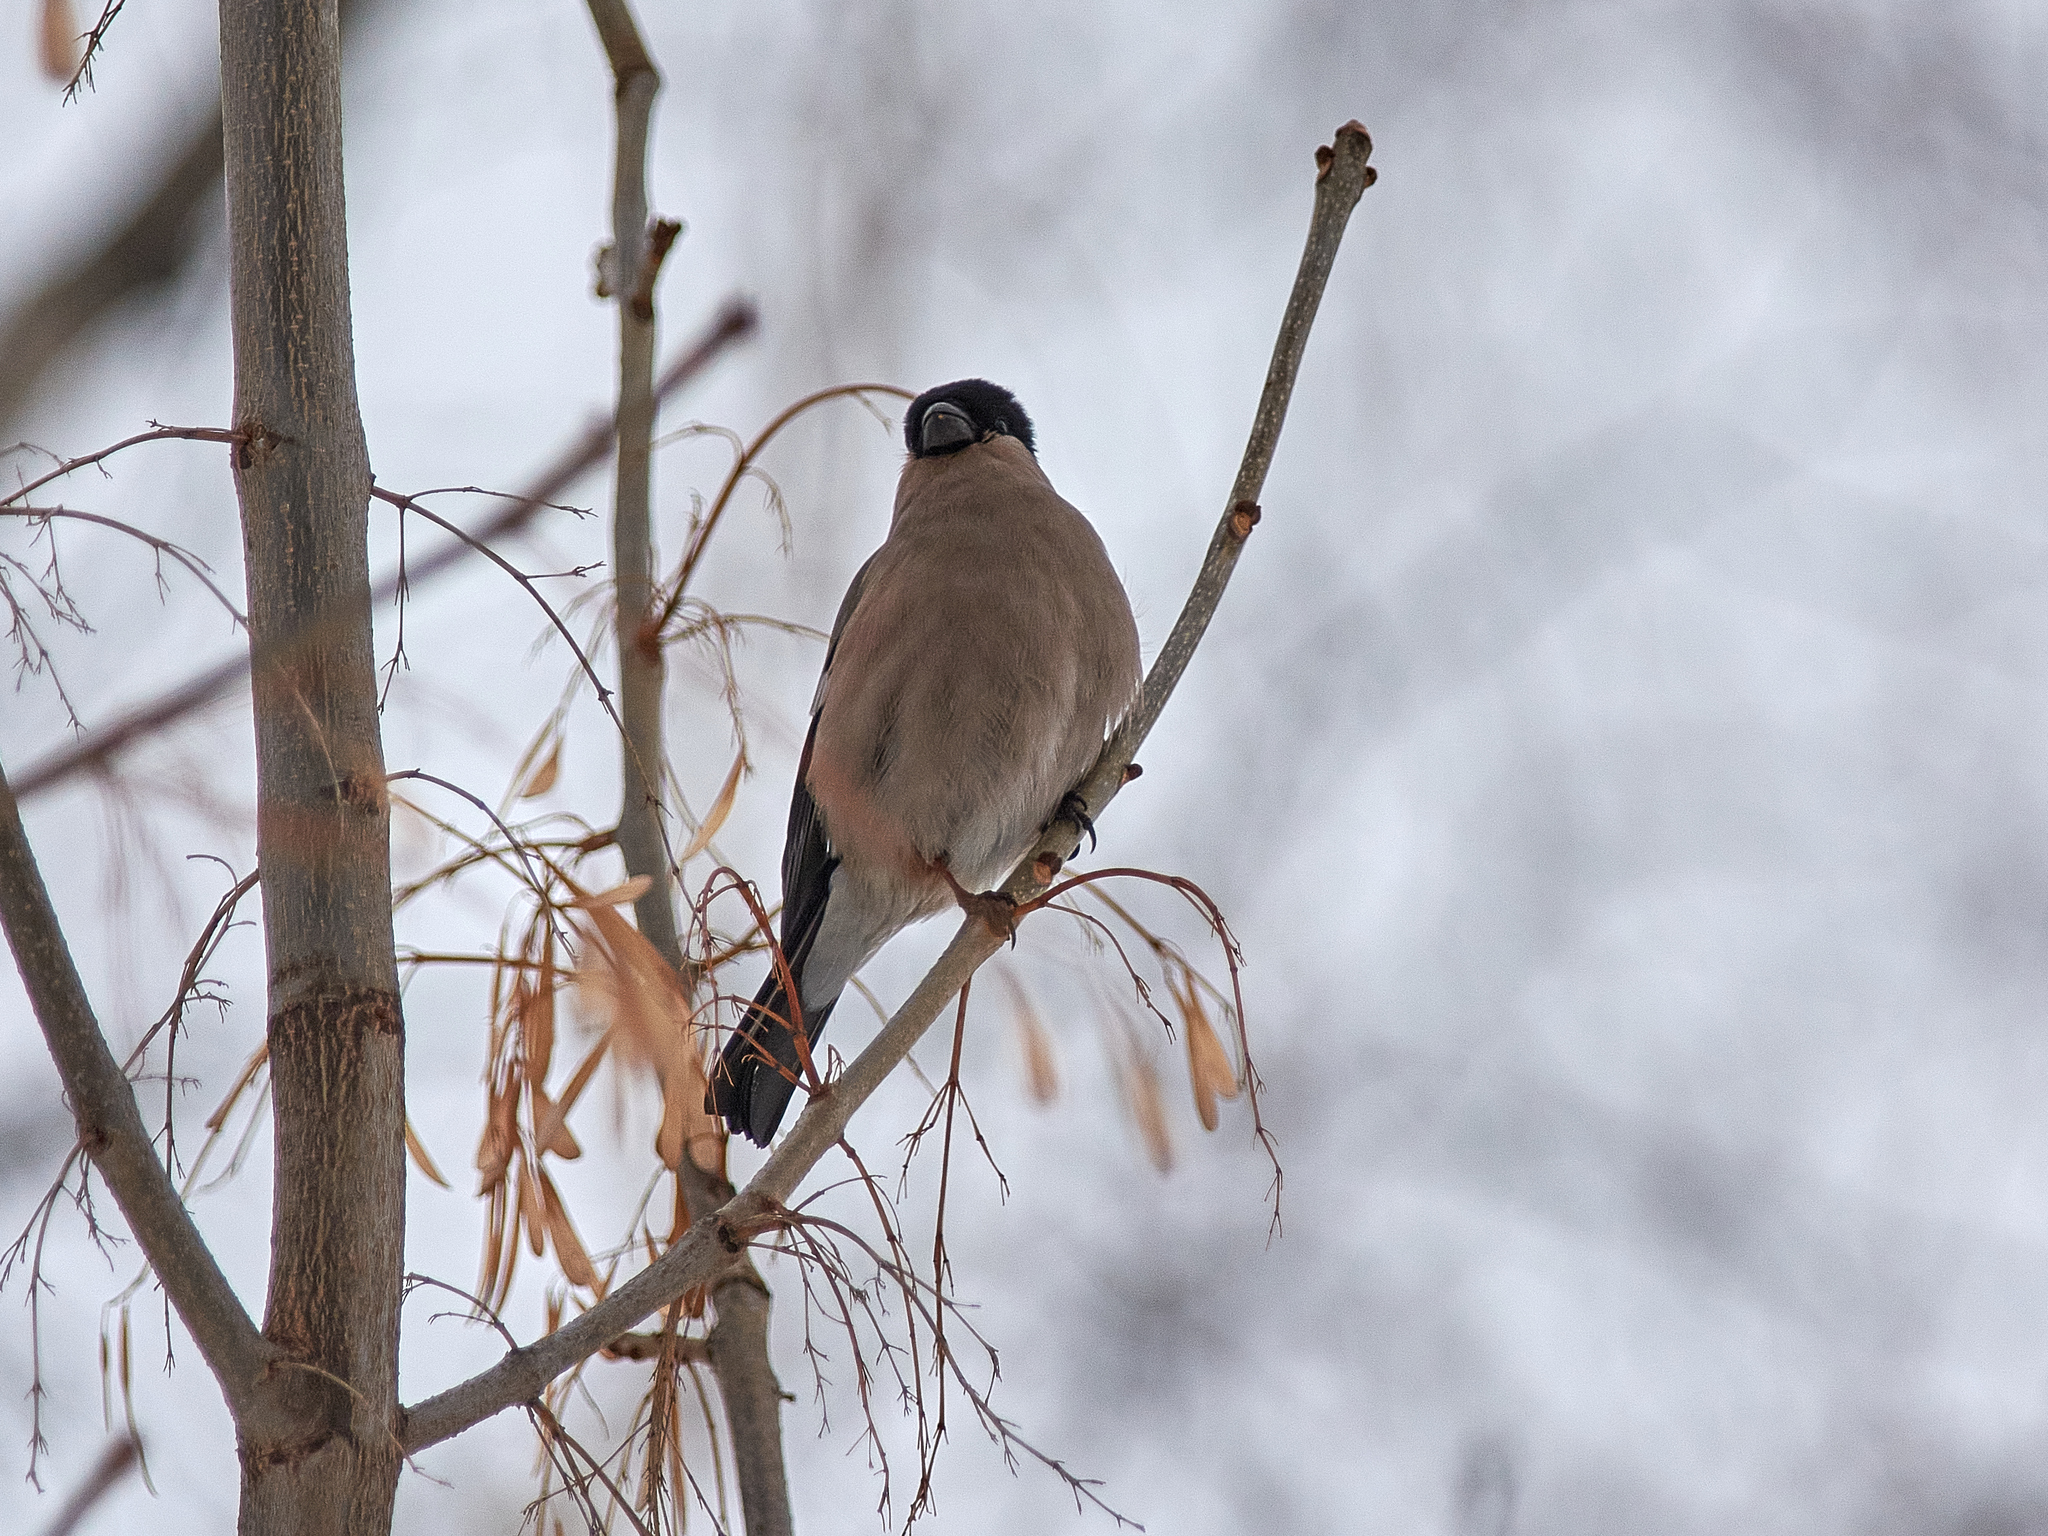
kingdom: Animalia
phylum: Chordata
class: Aves
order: Passeriformes
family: Fringillidae
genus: Pyrrhula
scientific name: Pyrrhula pyrrhula
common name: Eurasian bullfinch
